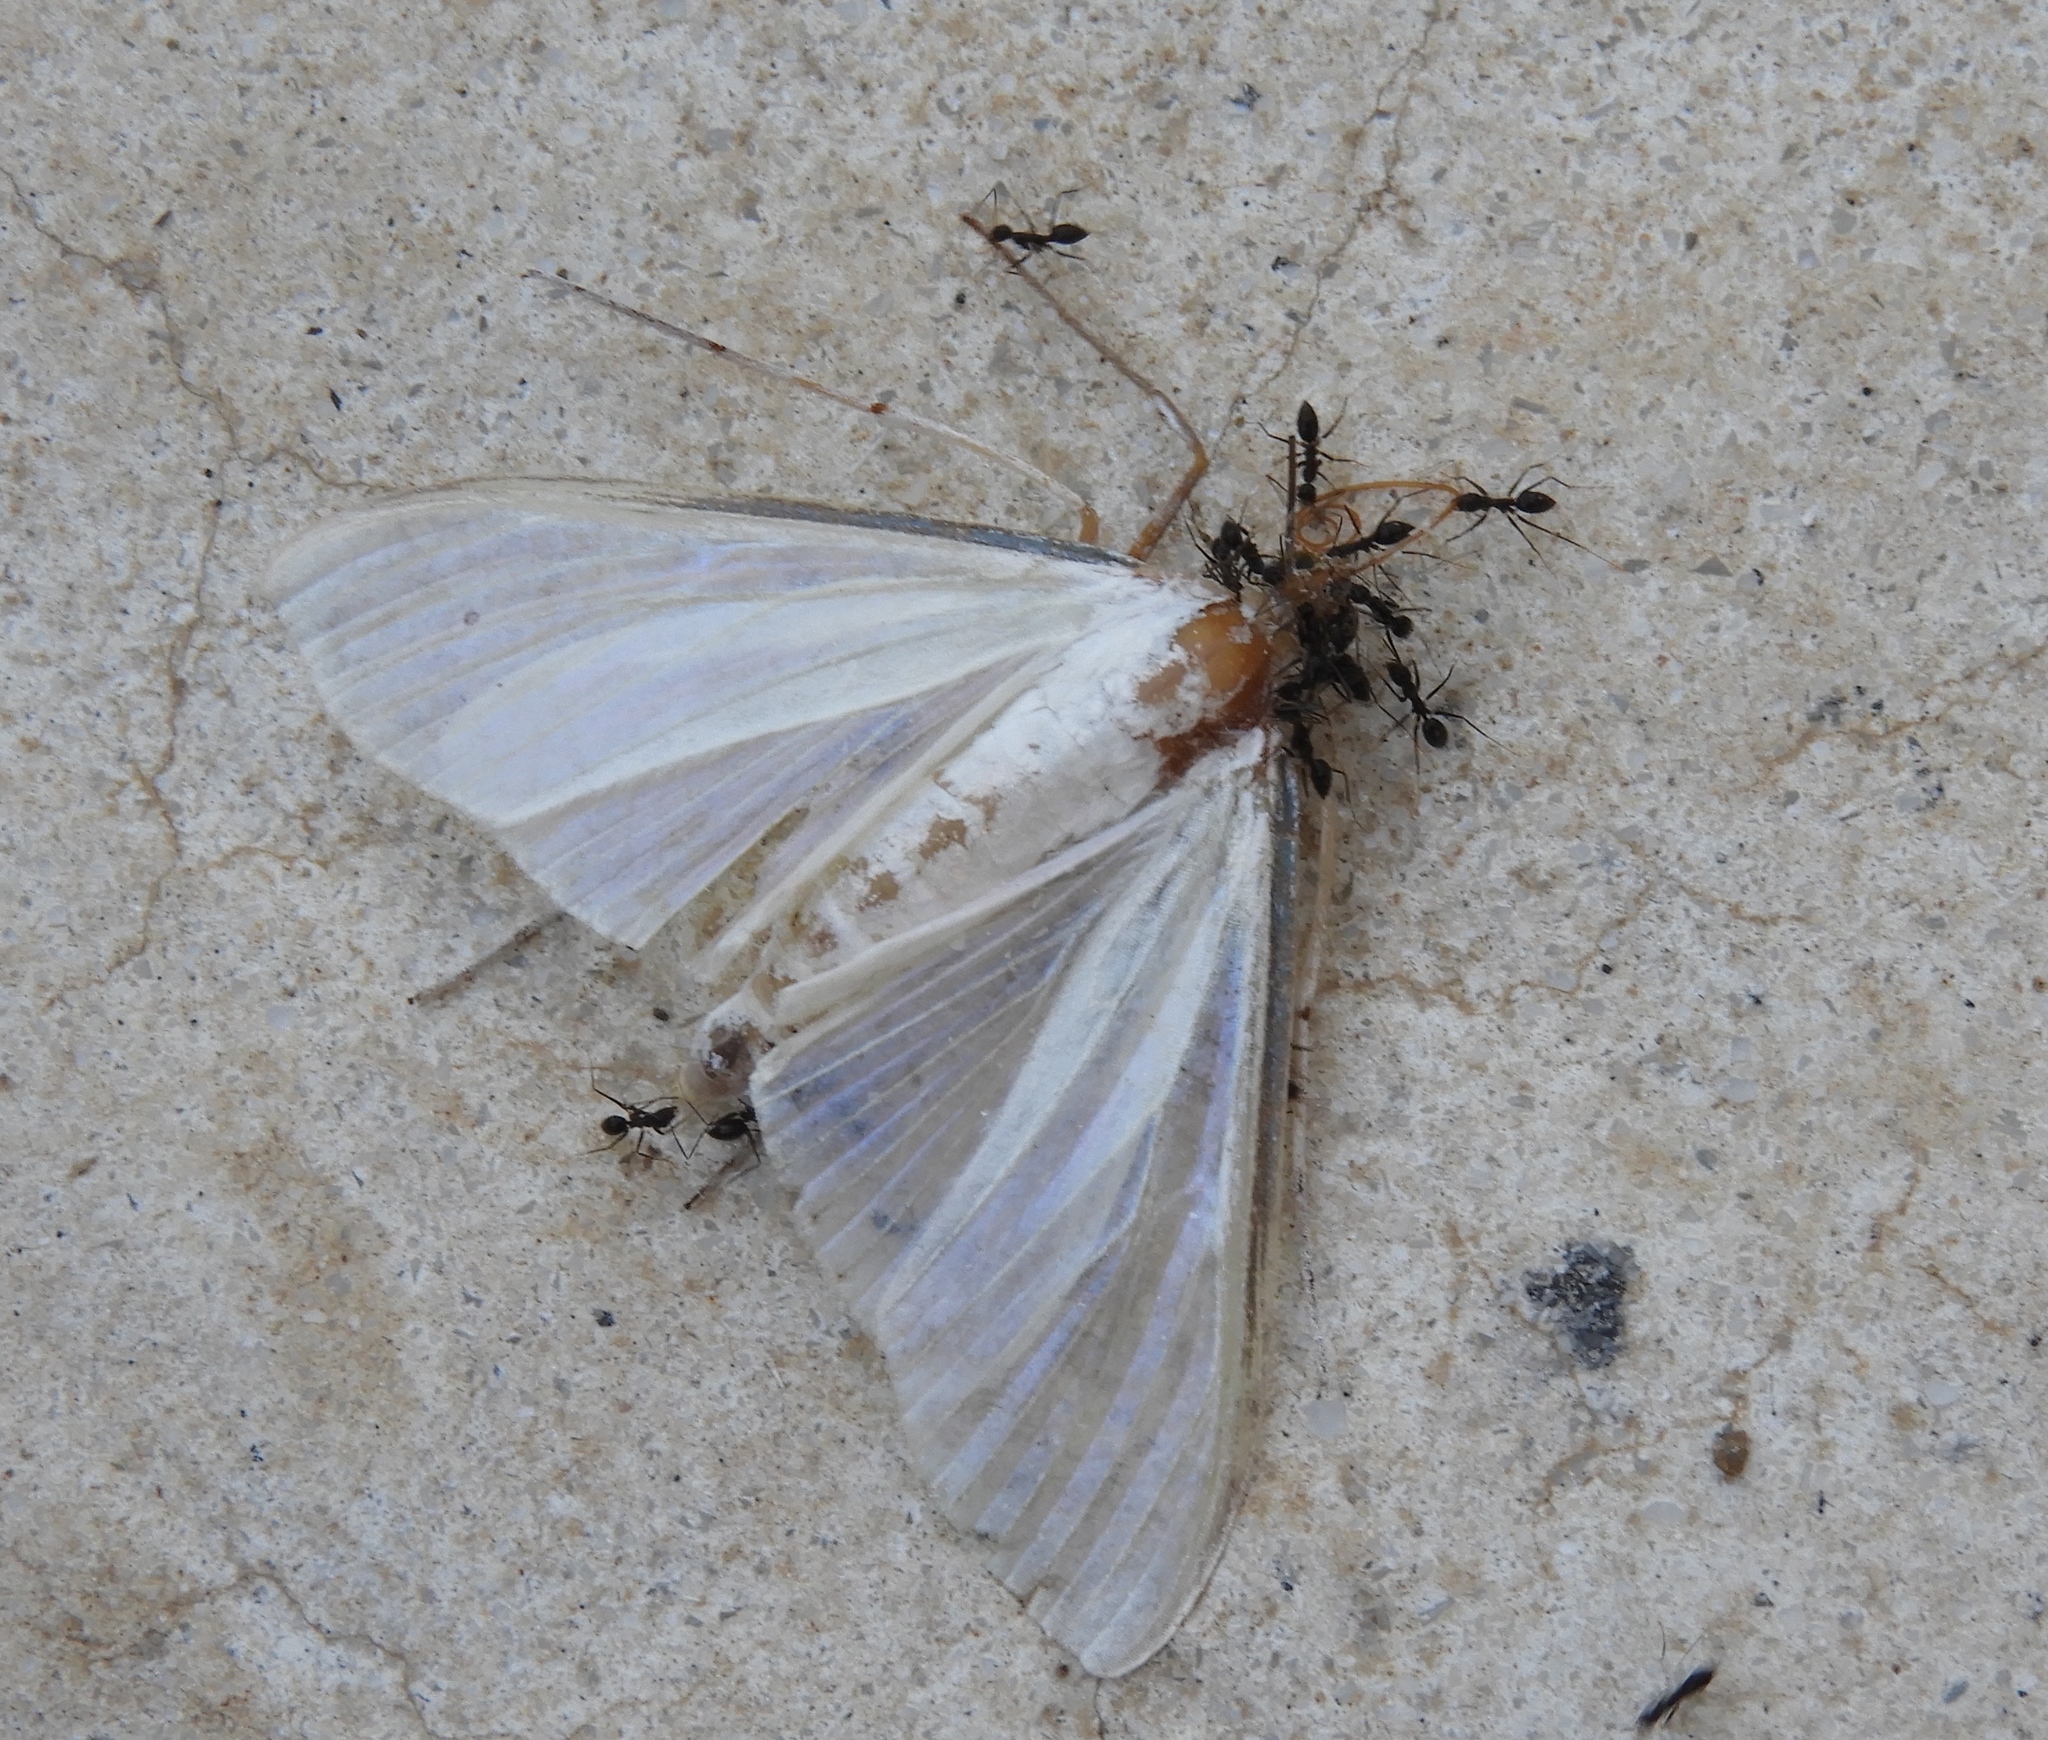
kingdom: Animalia
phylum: Arthropoda
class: Insecta
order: Lepidoptera
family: Crambidae
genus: Palpita
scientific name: Palpita flegia
